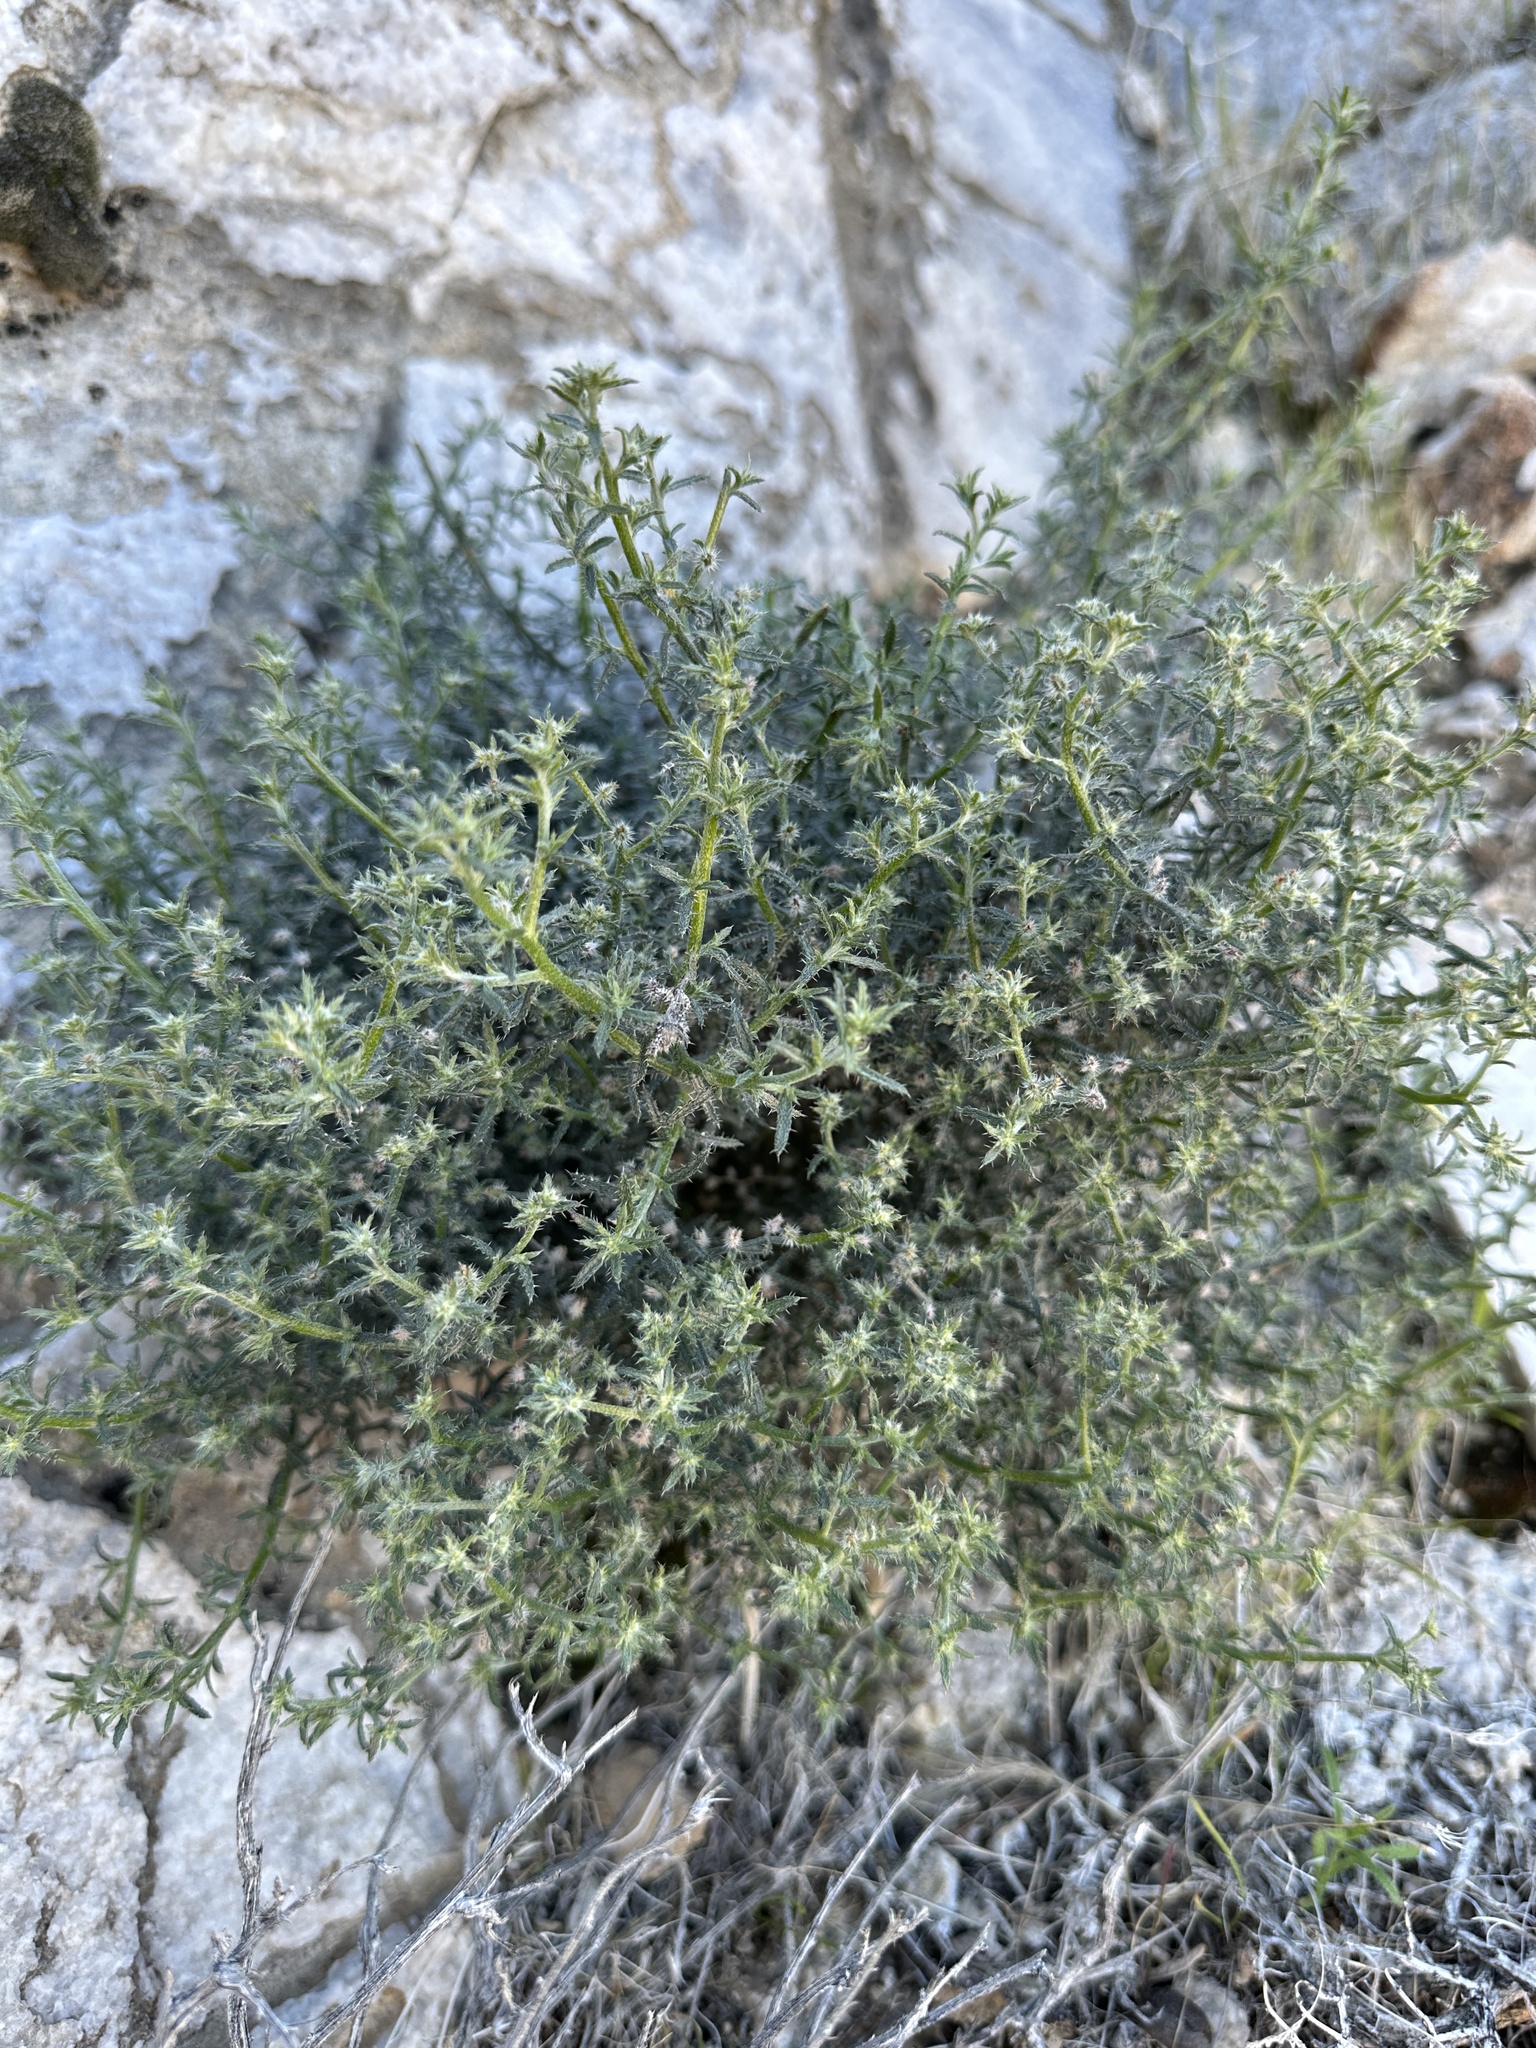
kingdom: Plantae
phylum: Tracheophyta
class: Magnoliopsida
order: Boraginales
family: Boraginaceae
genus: Johnstonella
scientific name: Johnstonella racemosa
